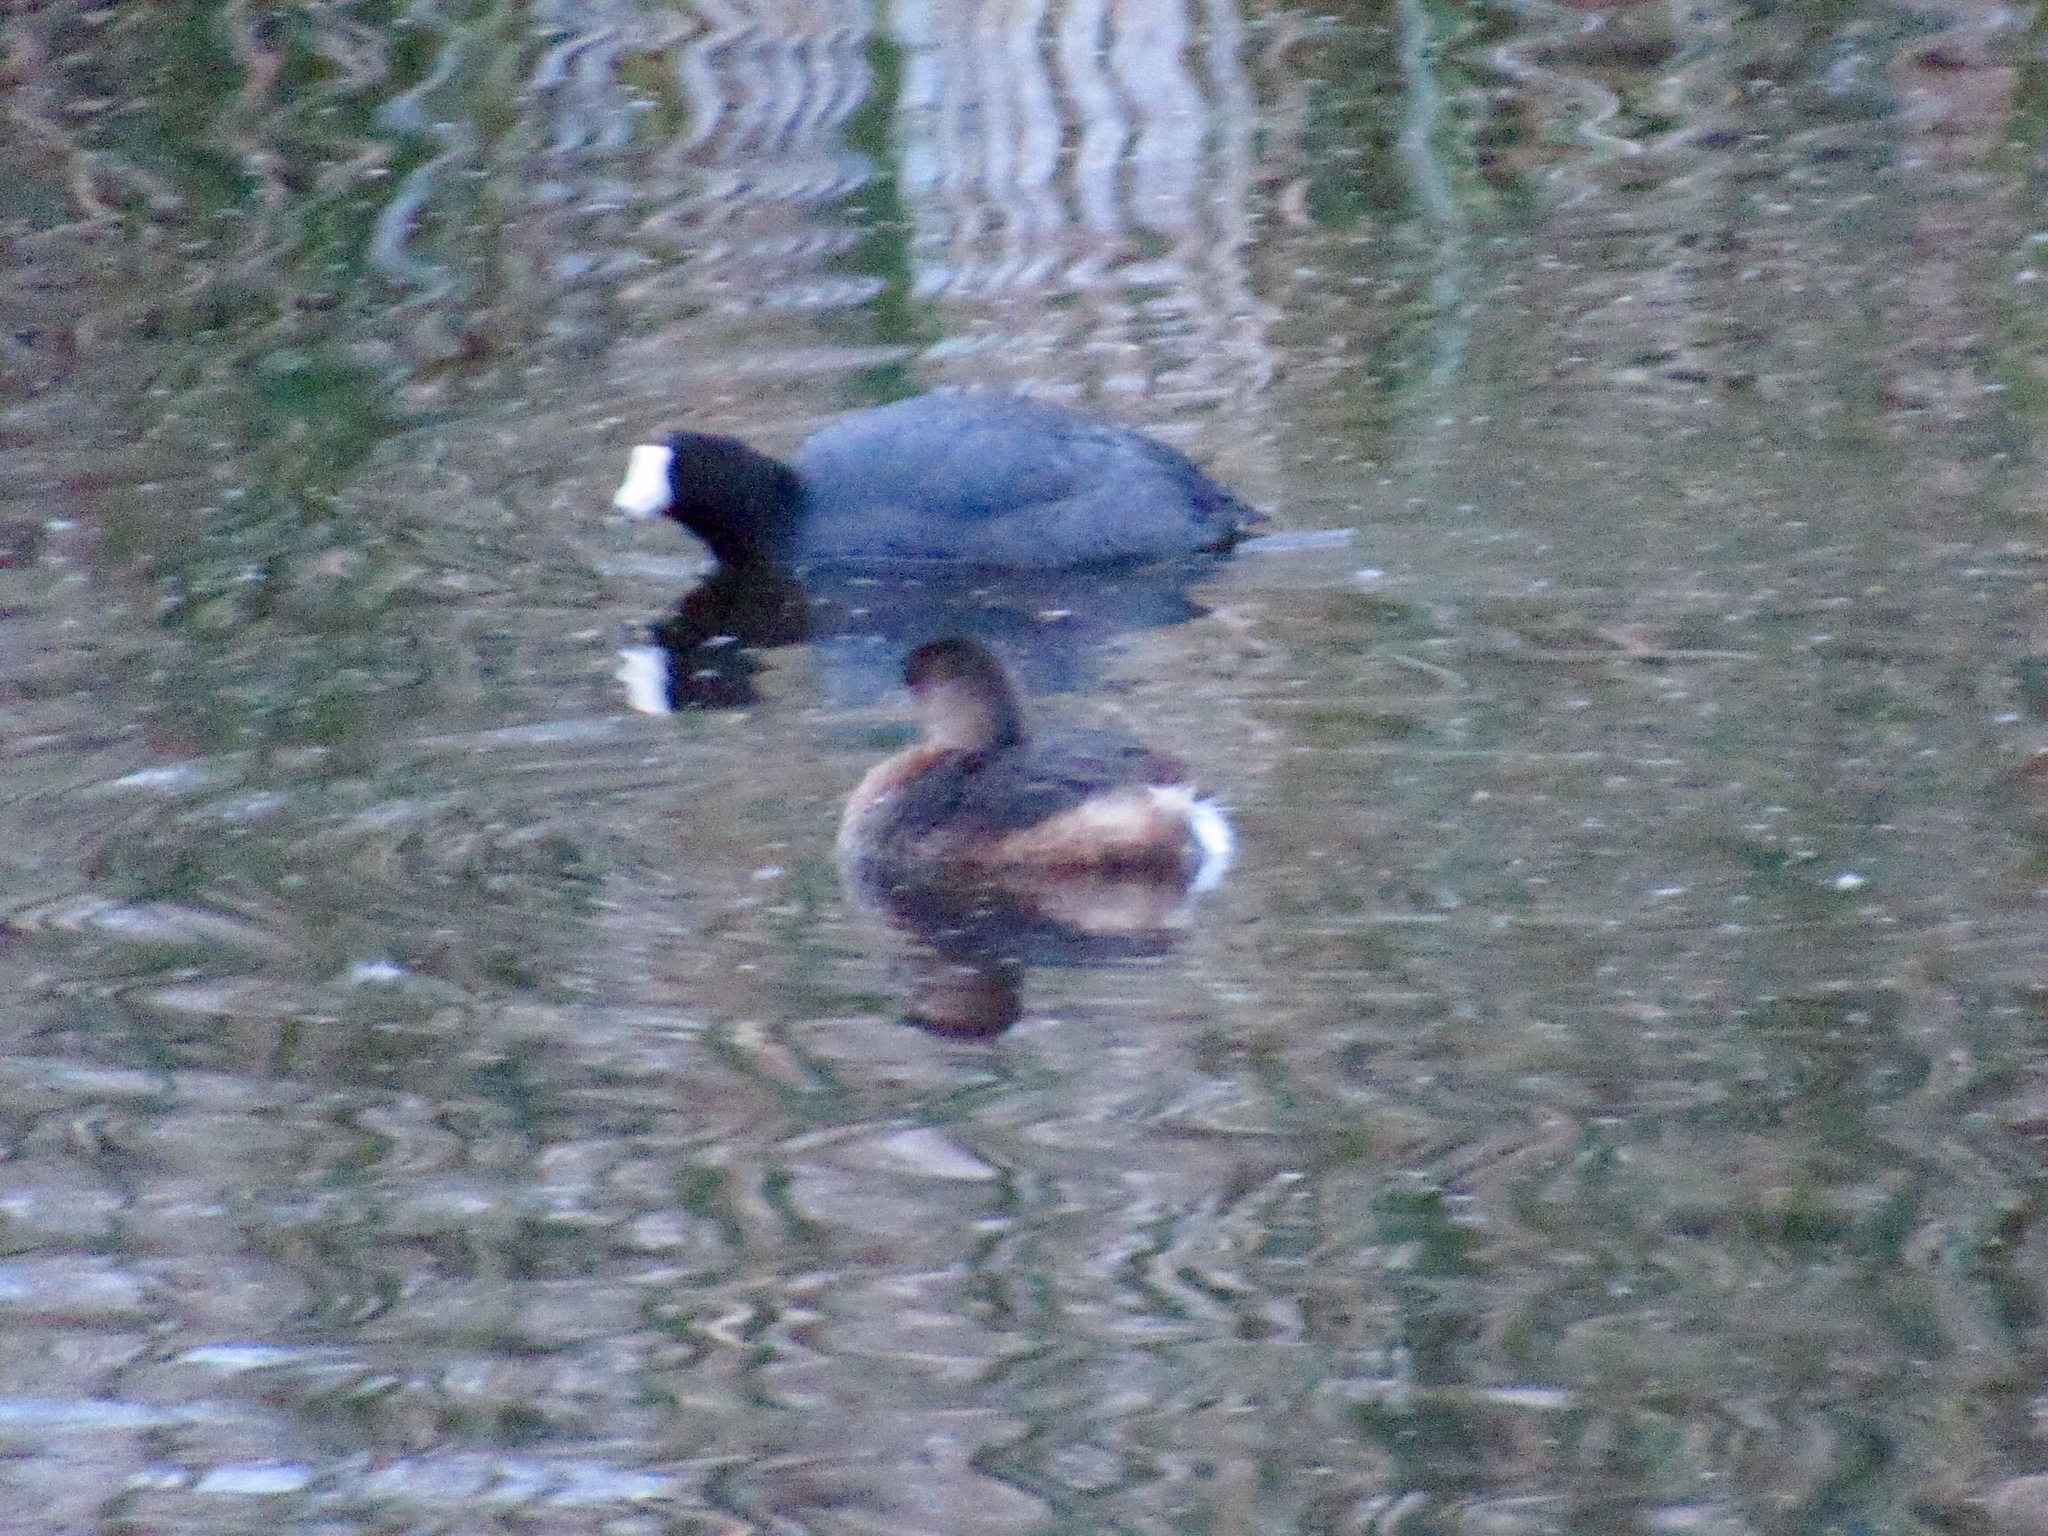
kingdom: Animalia
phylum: Chordata
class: Aves
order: Podicipediformes
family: Podicipedidae
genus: Podilymbus
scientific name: Podilymbus podiceps
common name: Pied-billed grebe
